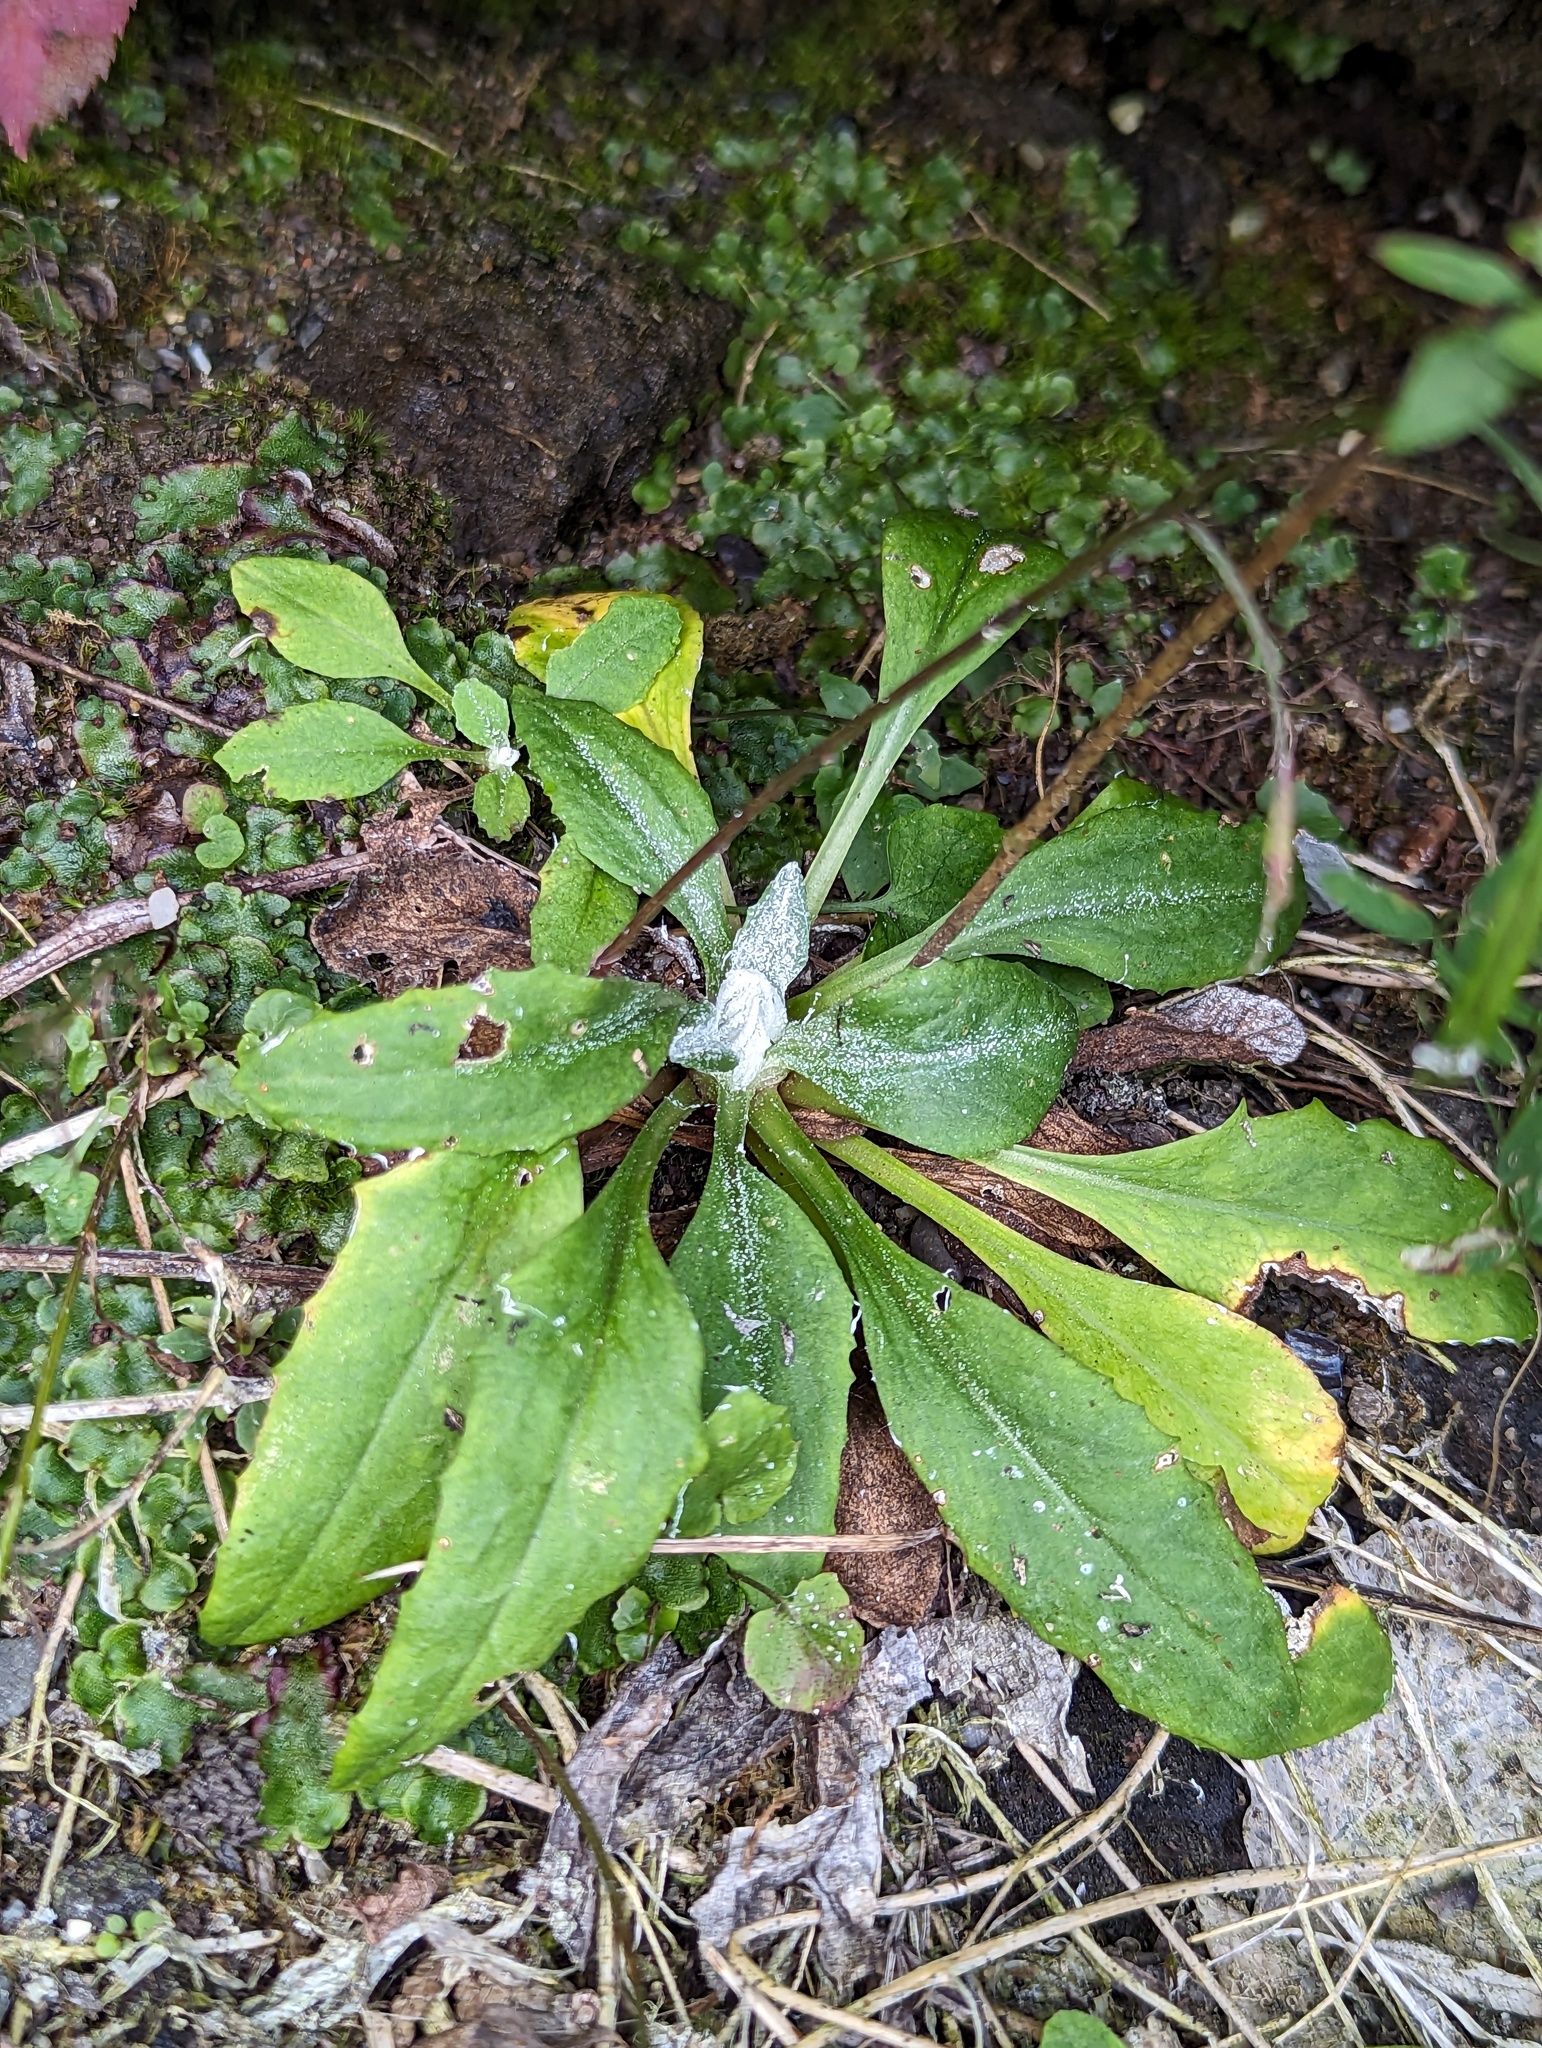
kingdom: Plantae
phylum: Tracheophyta
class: Magnoliopsida
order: Ericales
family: Primulaceae
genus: Primula
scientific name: Primula laurentiana
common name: Bird-eye primrose
